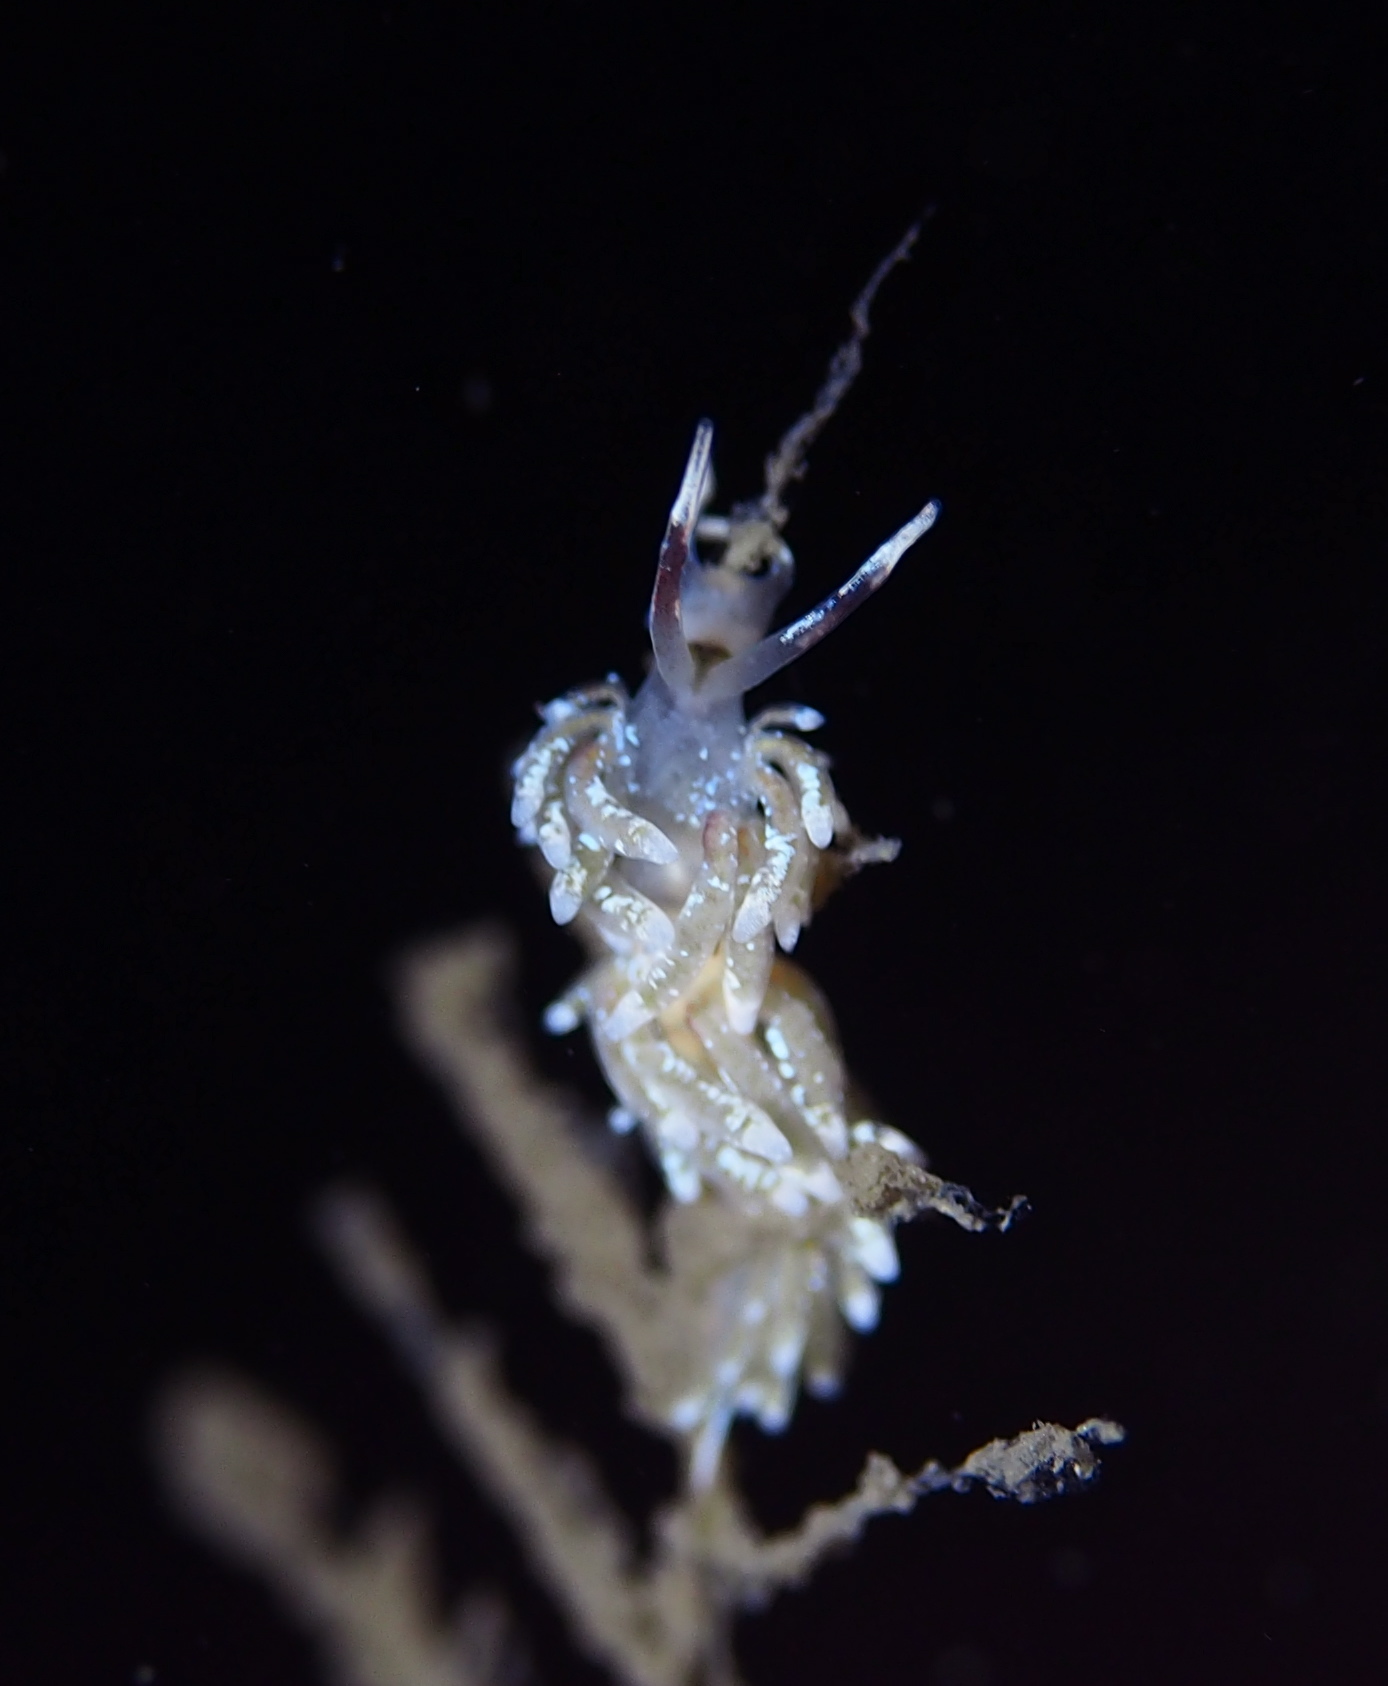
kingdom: Animalia
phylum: Mollusca
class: Gastropoda
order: Nudibranchia
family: Trinchesiidae
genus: Rubramoena
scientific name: Rubramoena rubescens
